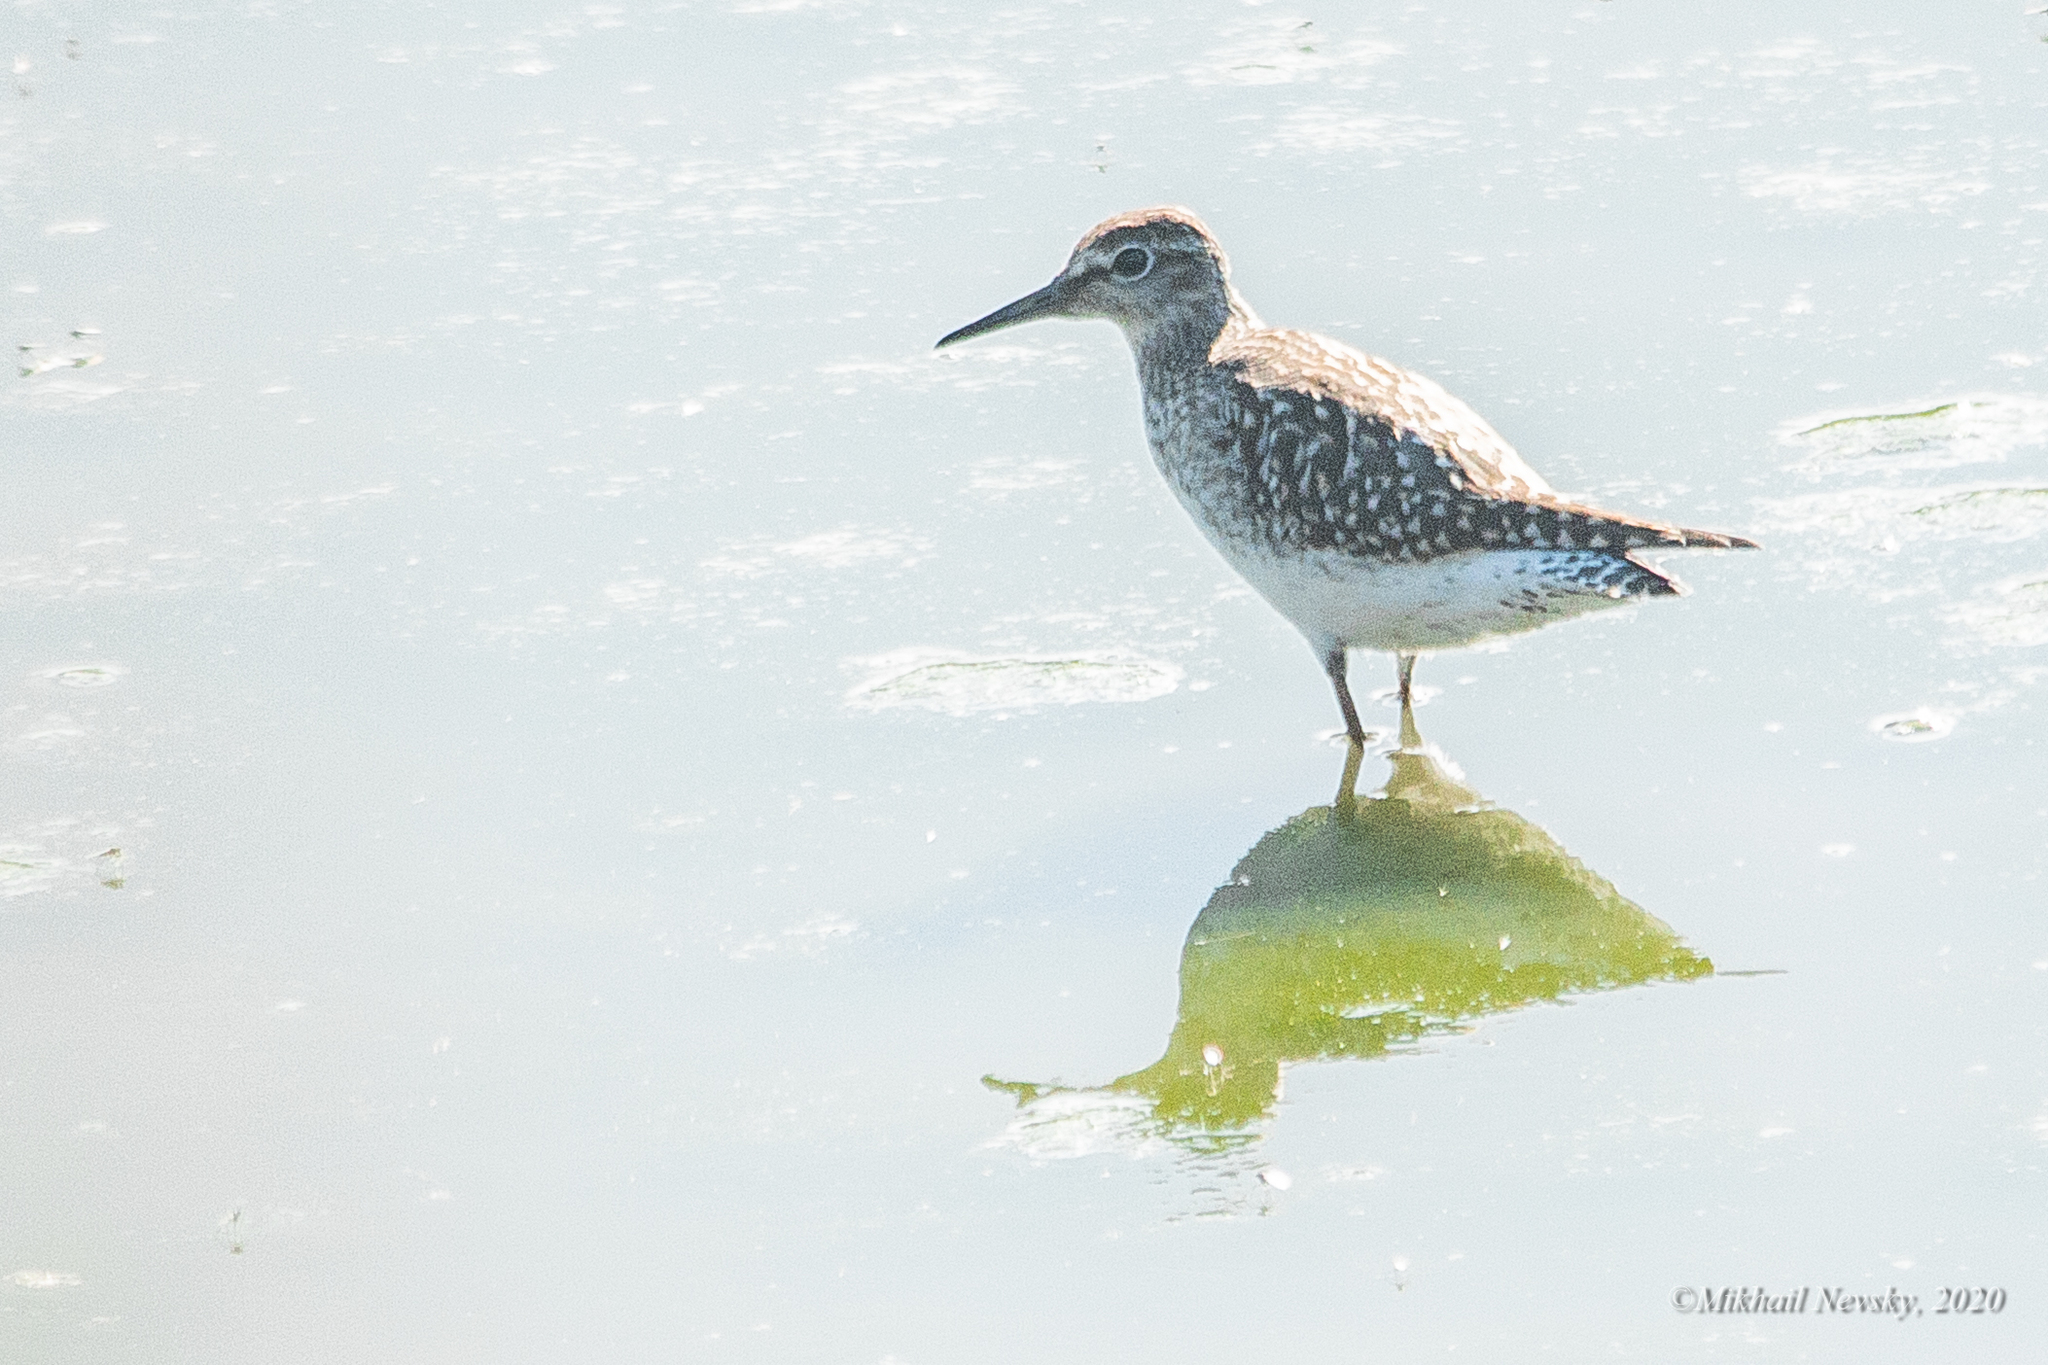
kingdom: Animalia
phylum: Chordata
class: Aves
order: Charadriiformes
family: Scolopacidae
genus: Tringa
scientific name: Tringa glareola
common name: Wood sandpiper
